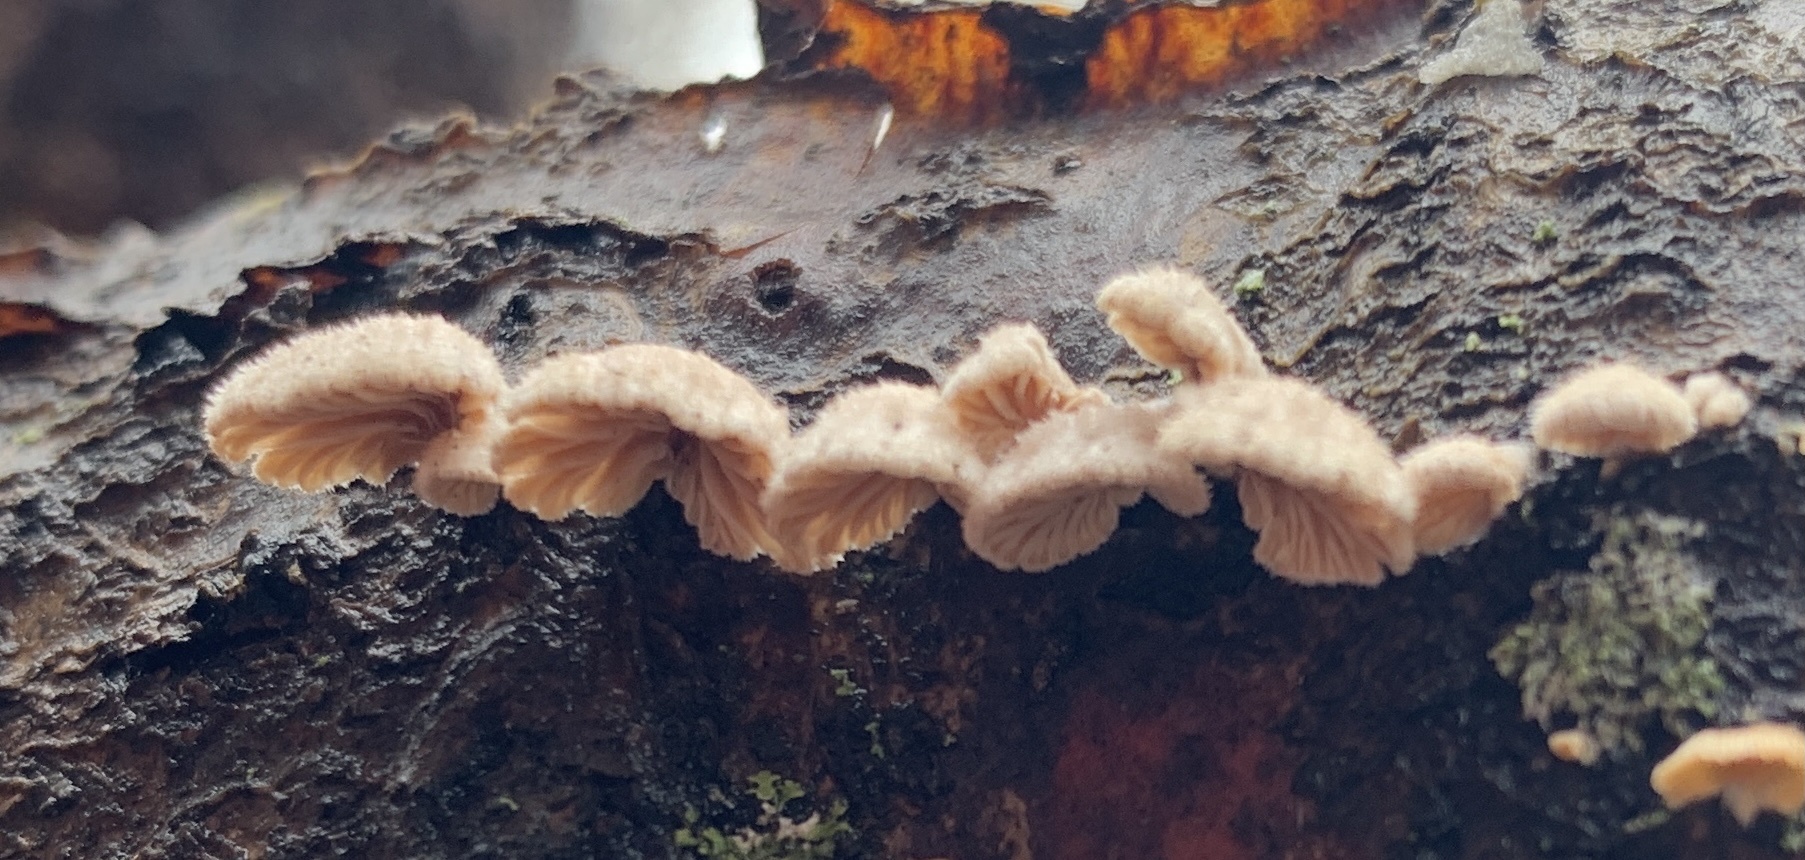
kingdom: Fungi
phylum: Basidiomycota
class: Agaricomycetes
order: Agaricales
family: Schizophyllaceae
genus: Schizophyllum
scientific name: Schizophyllum commune
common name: Common porecrust
